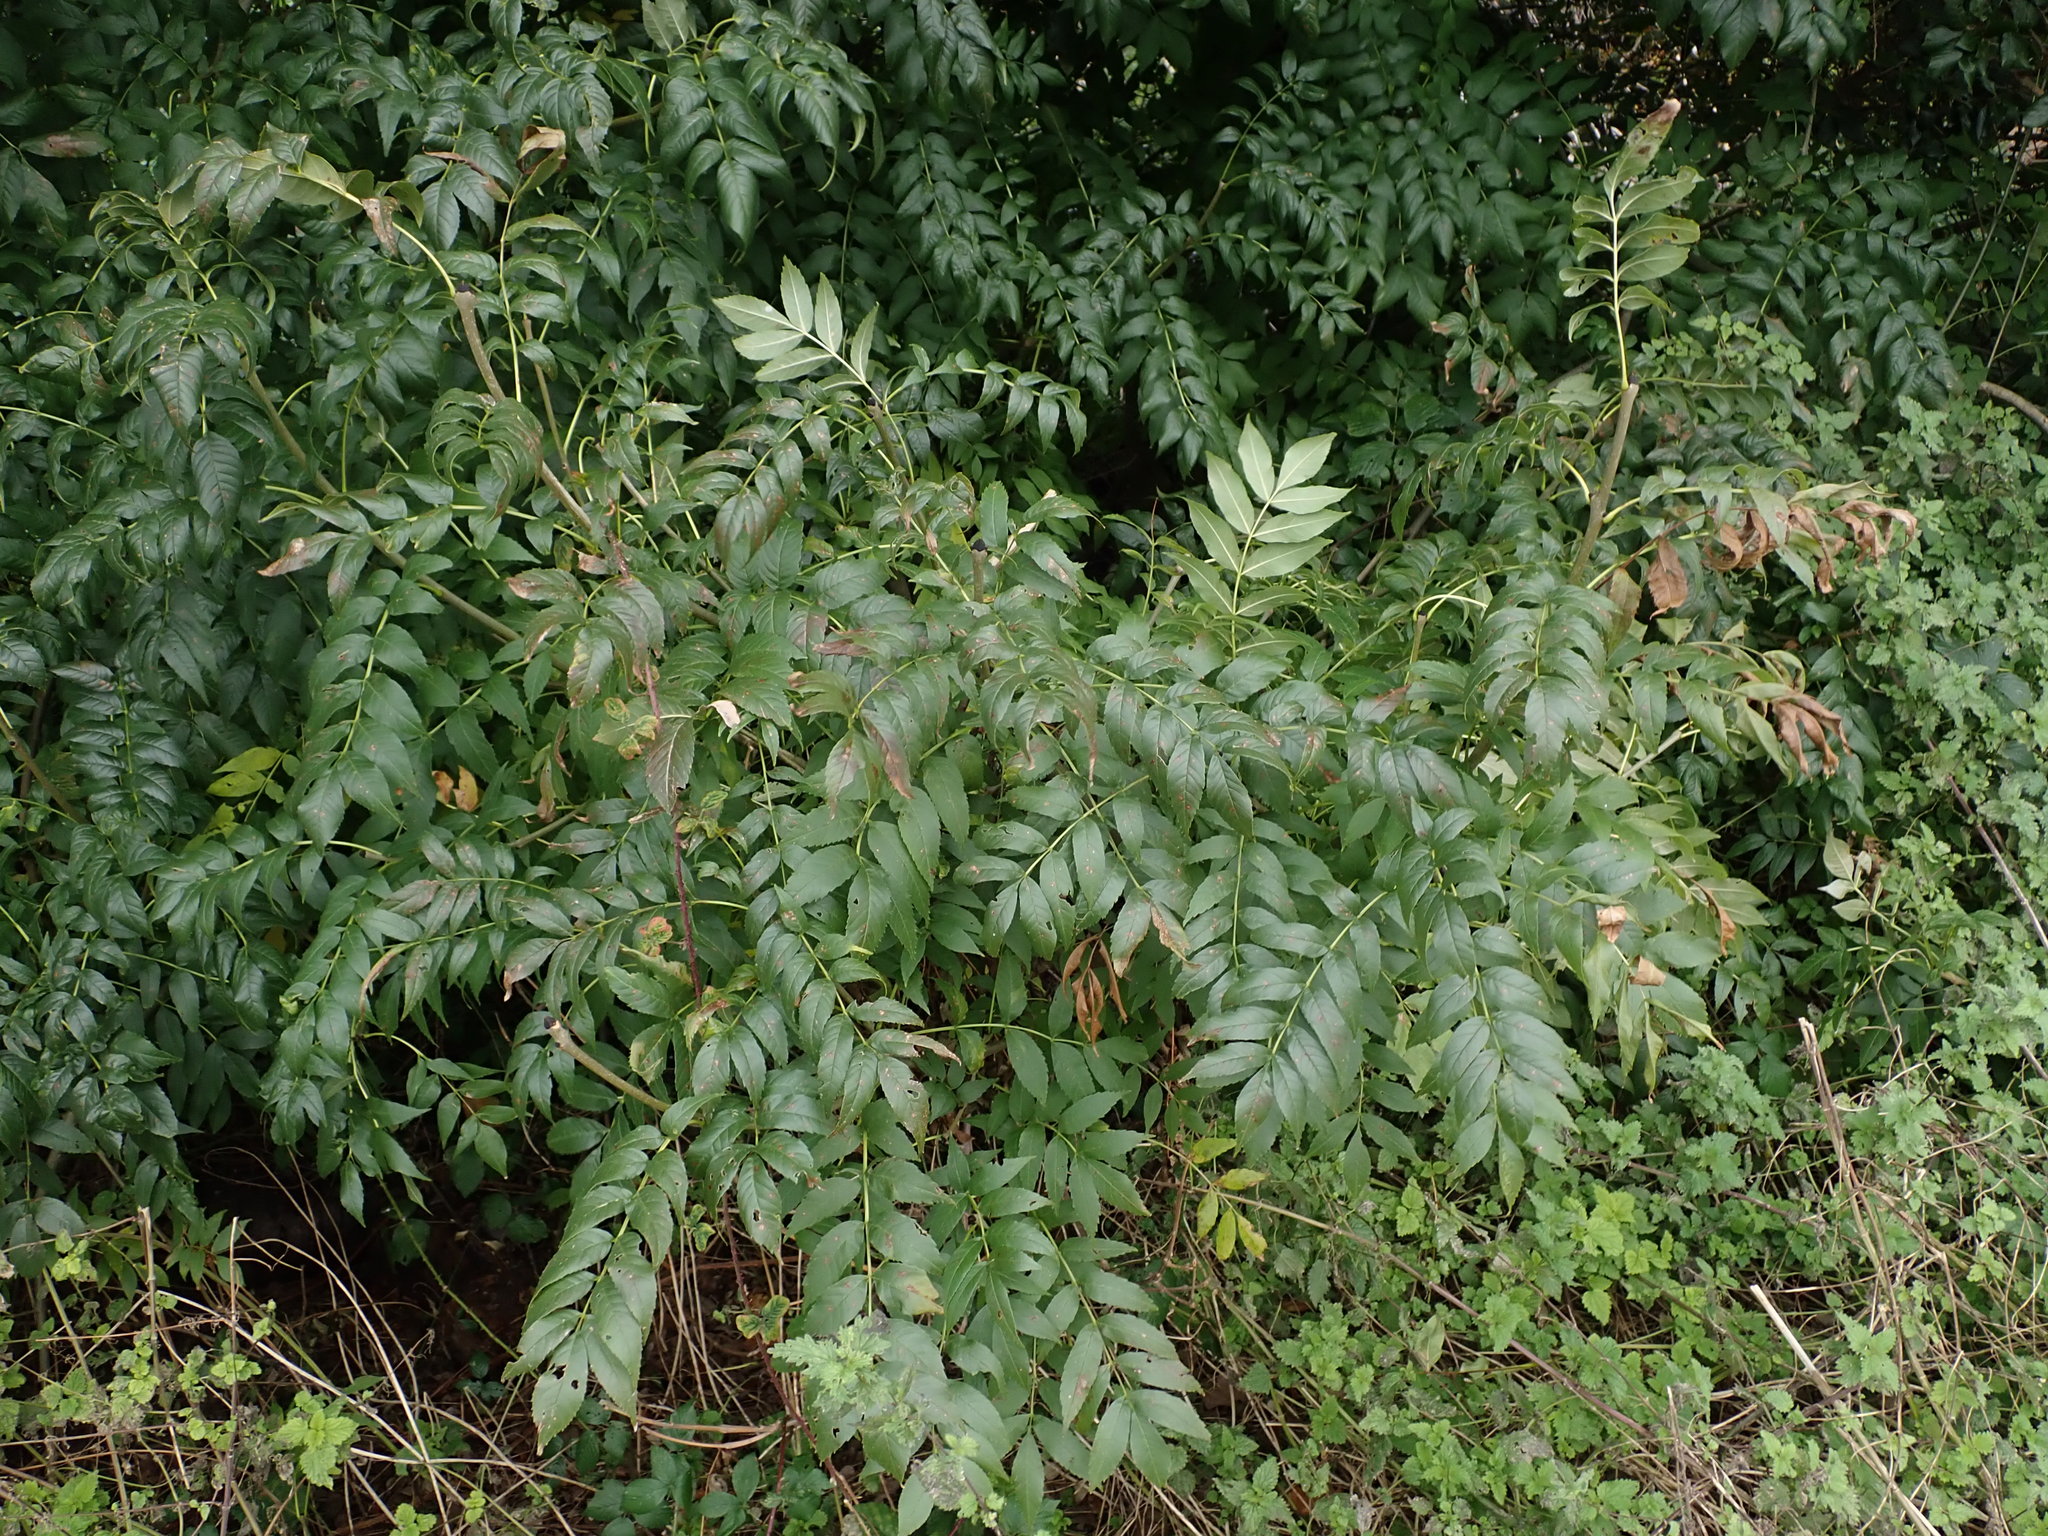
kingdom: Plantae
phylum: Tracheophyta
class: Magnoliopsida
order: Lamiales
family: Oleaceae
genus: Fraxinus
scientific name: Fraxinus excelsior
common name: European ash
